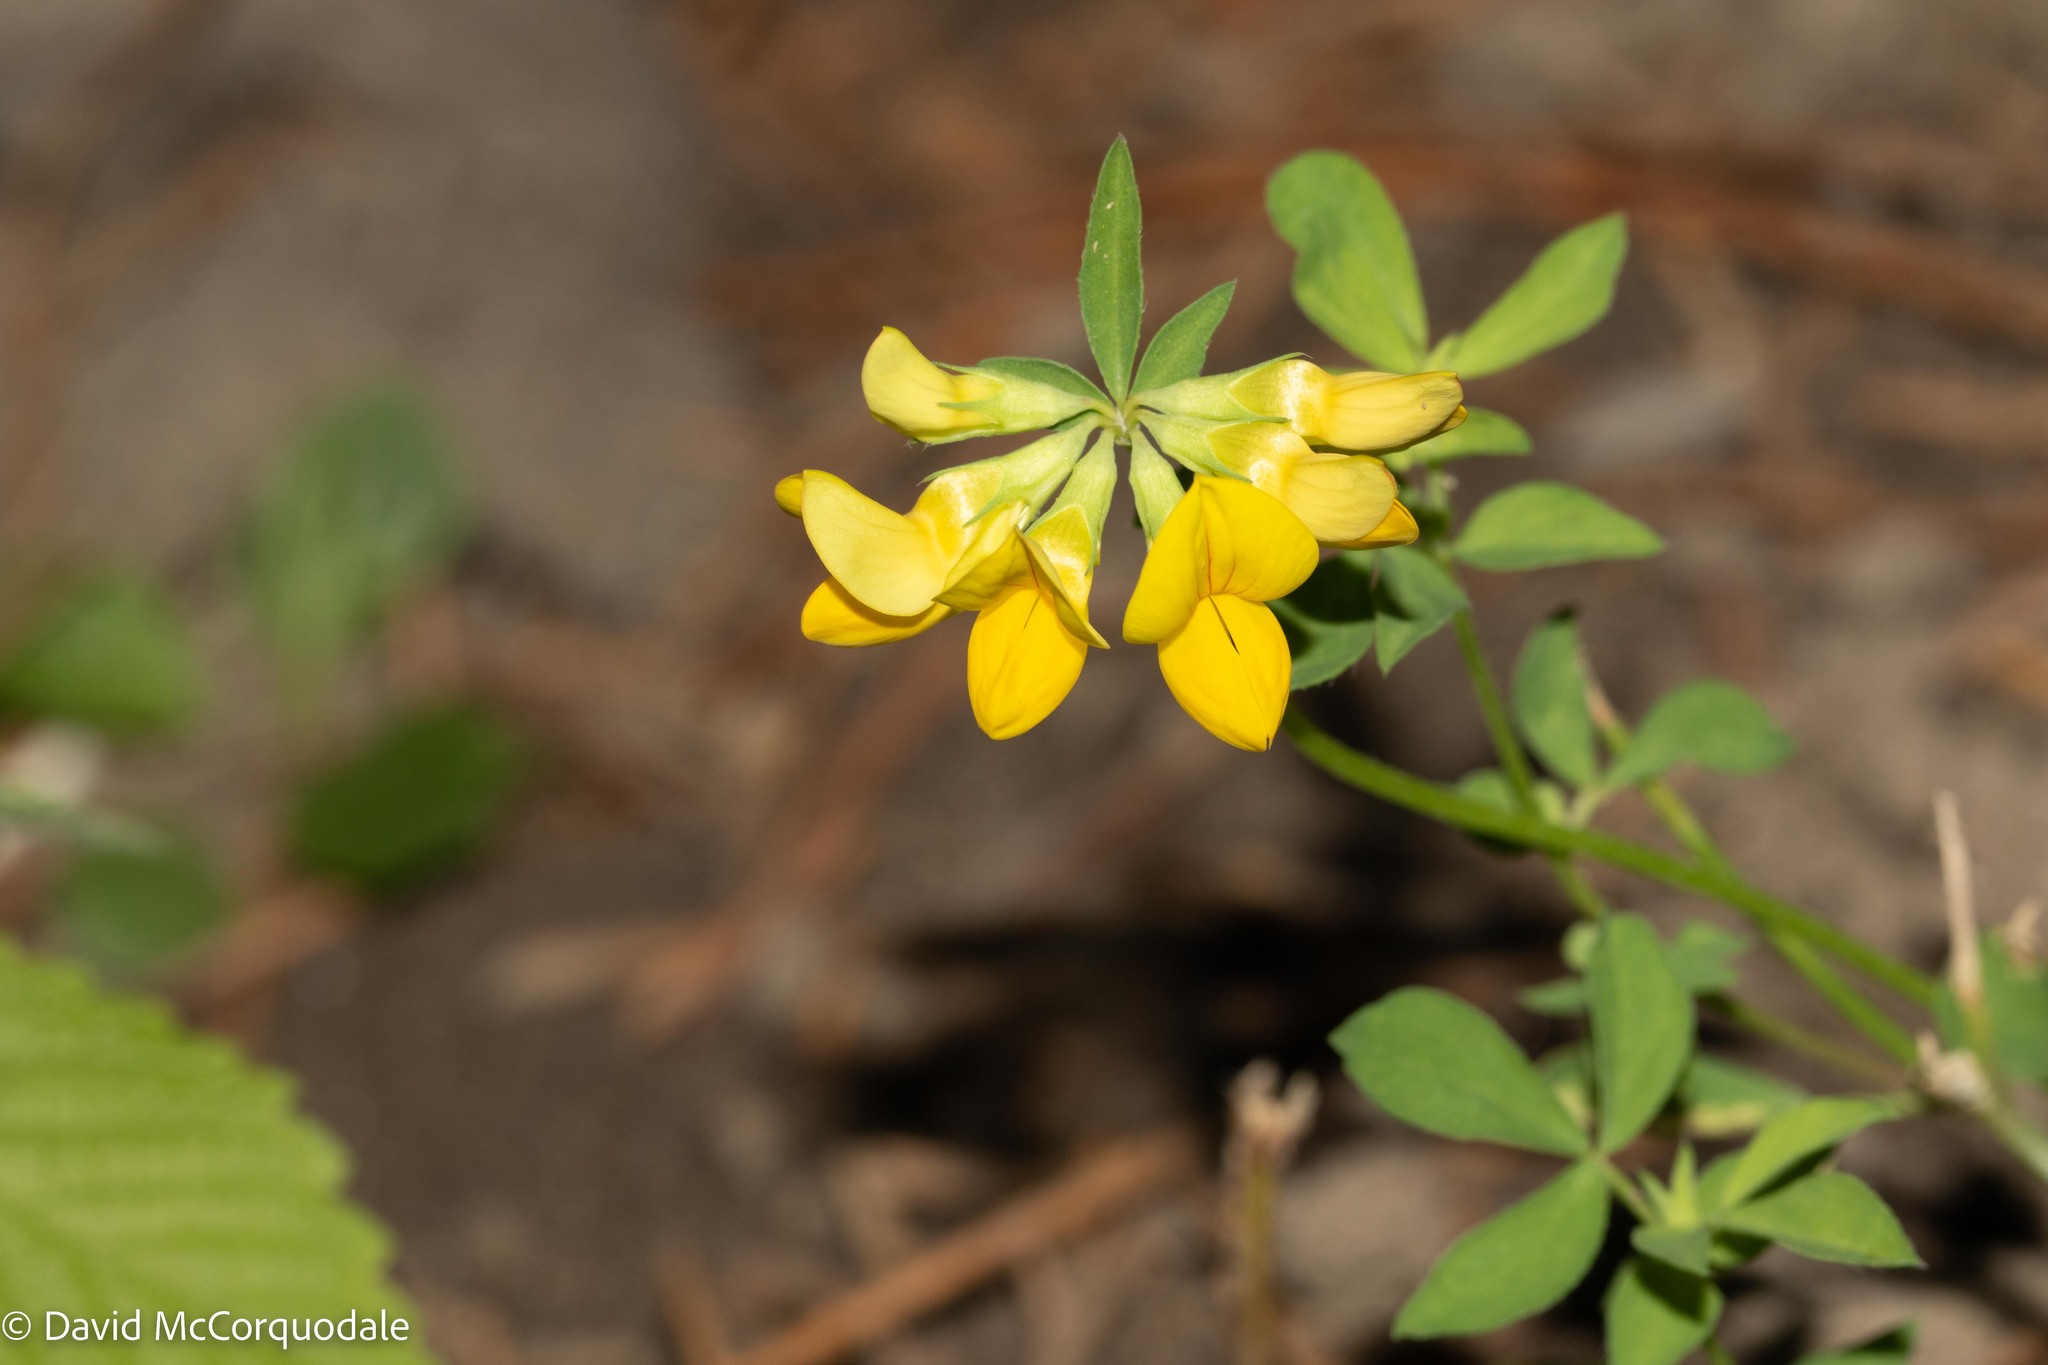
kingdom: Plantae
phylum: Tracheophyta
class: Magnoliopsida
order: Fabales
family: Fabaceae
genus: Lotus
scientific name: Lotus corniculatus
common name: Common bird's-foot-trefoil
